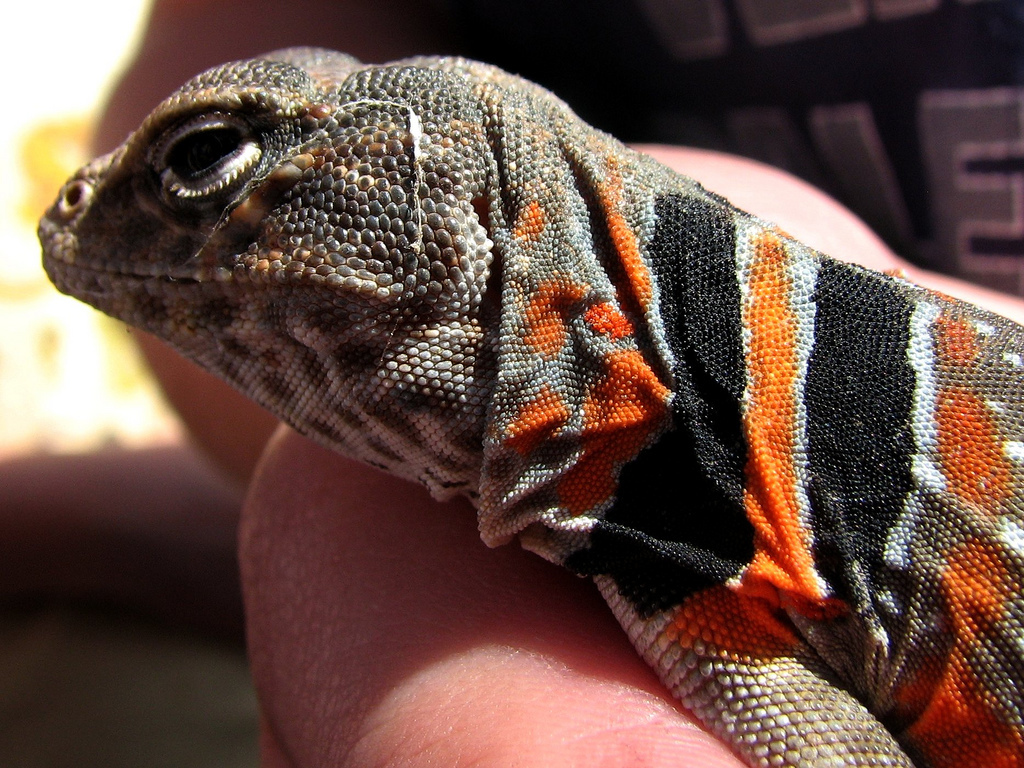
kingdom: Animalia
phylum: Chordata
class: Squamata
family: Crotaphytidae
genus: Crotaphytus
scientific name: Crotaphytus bicinctores
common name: Mojave black-collared lizard
